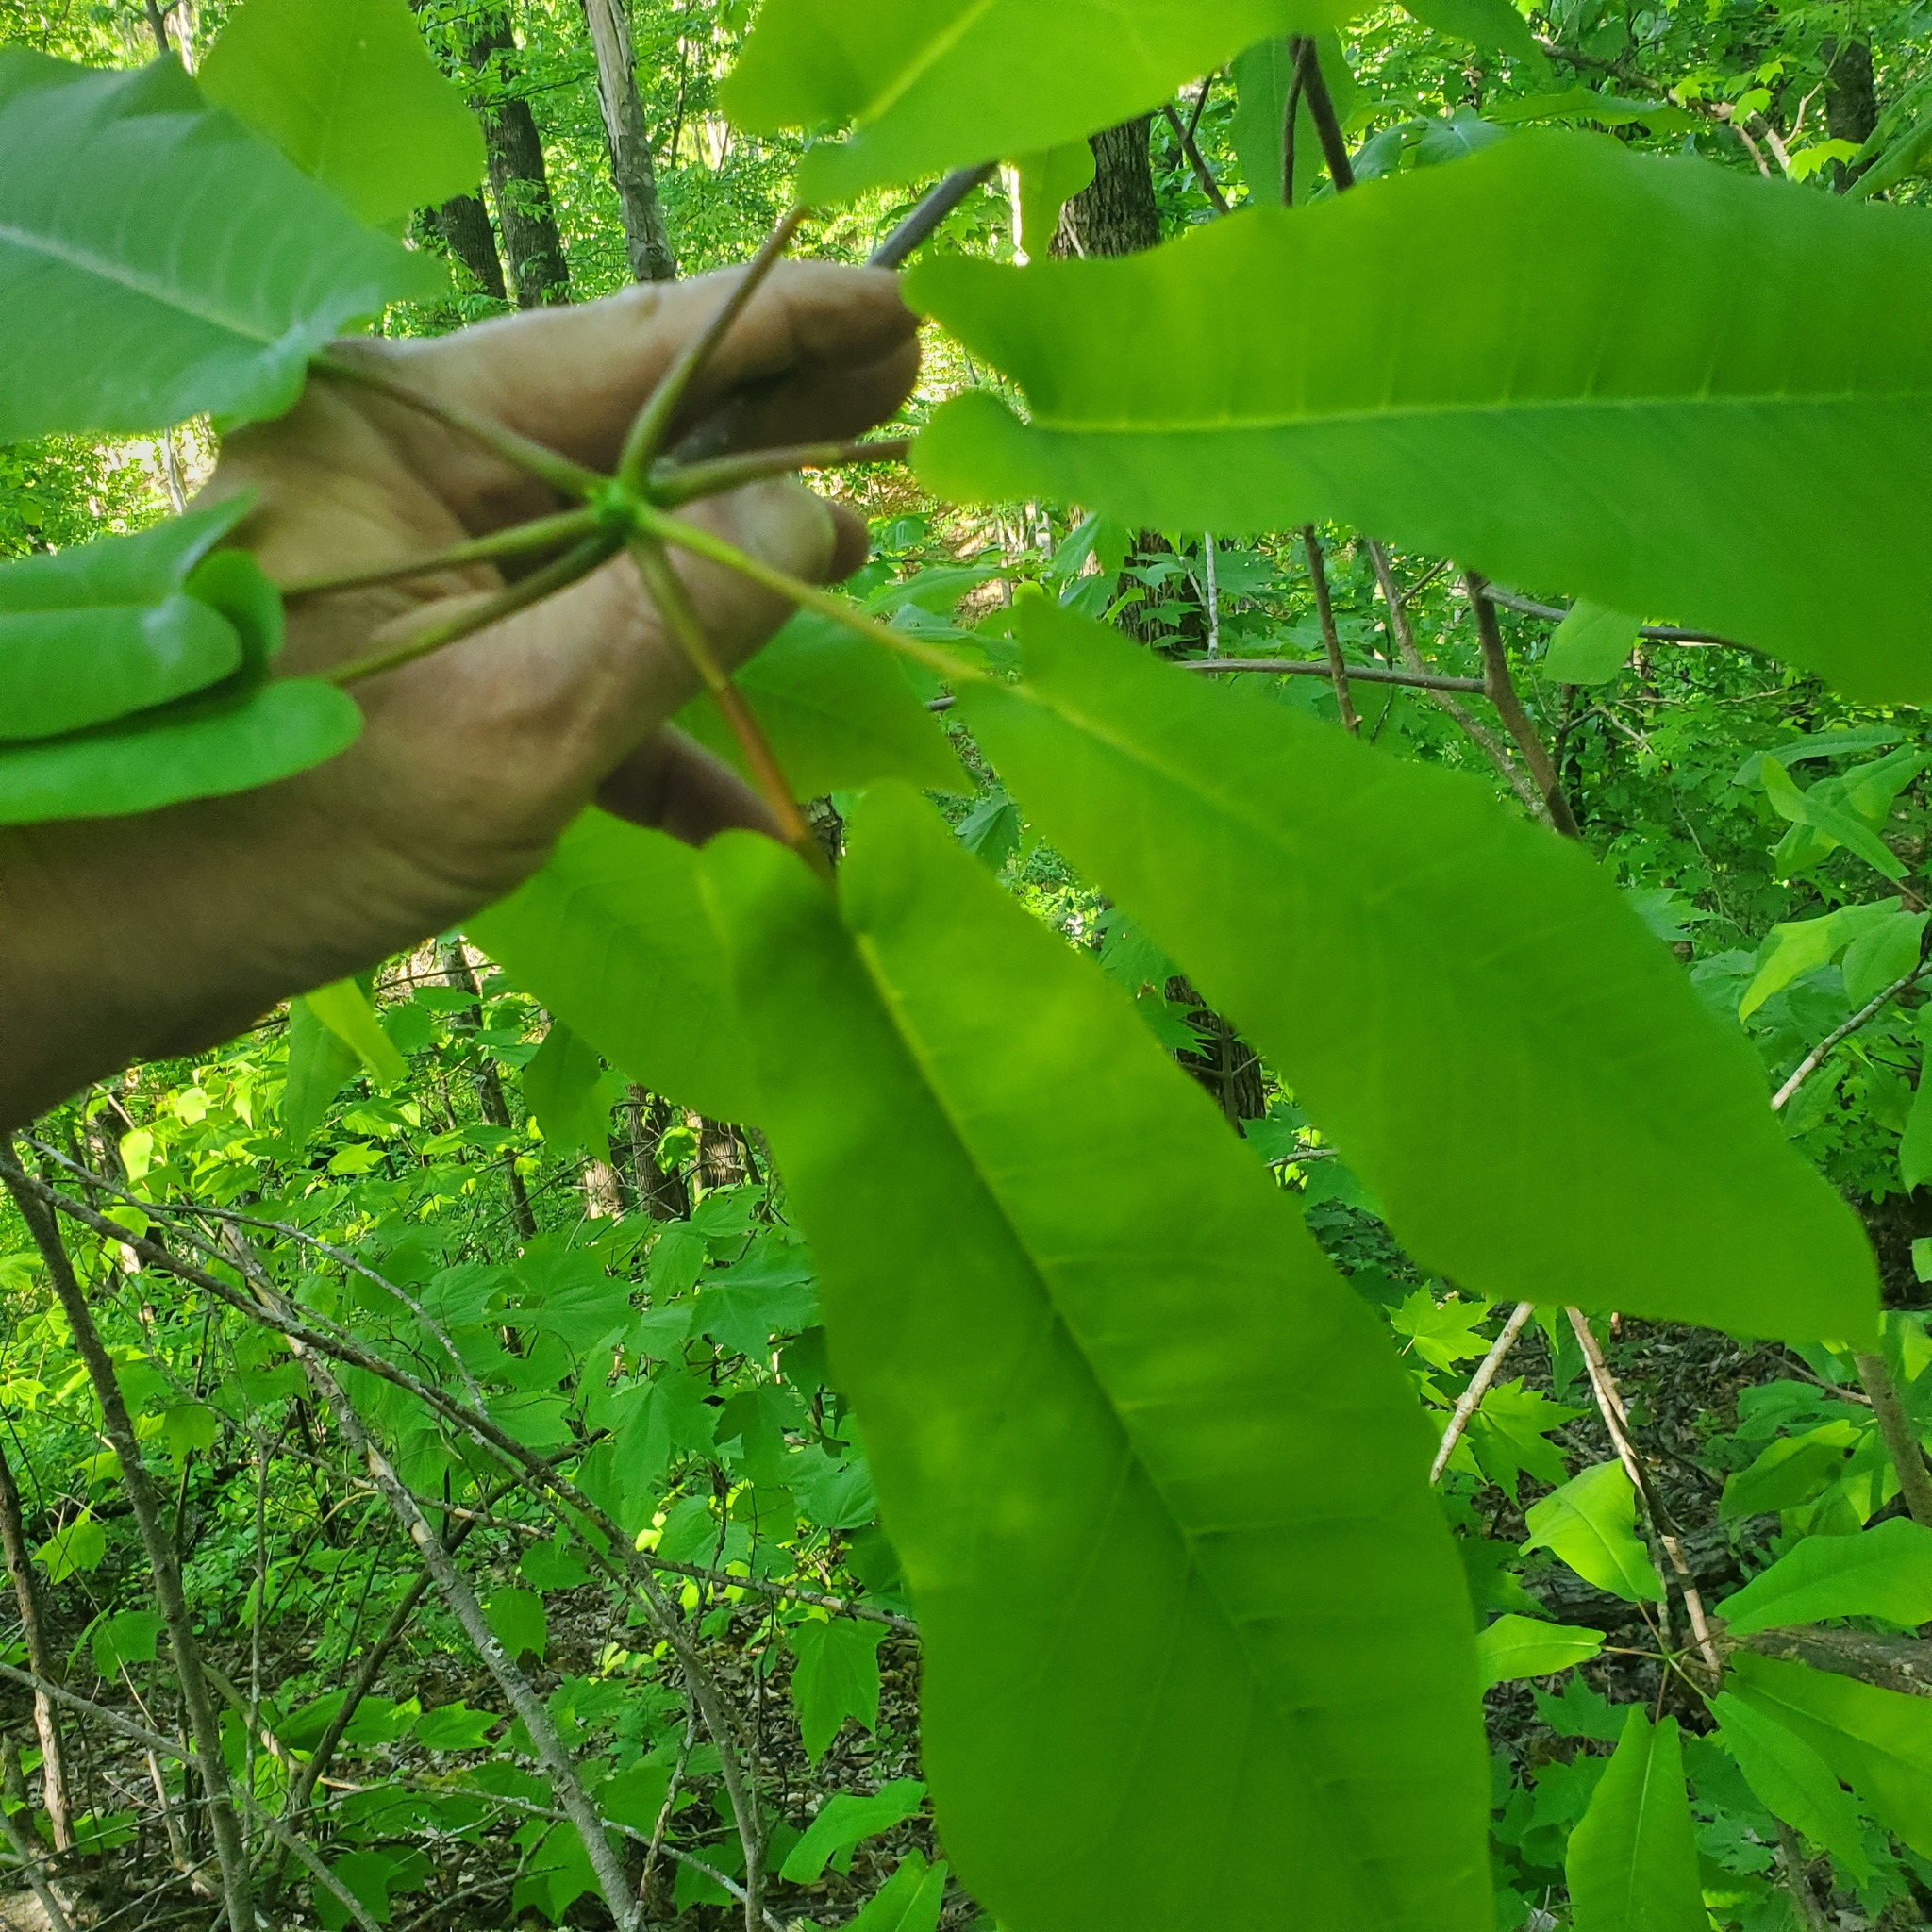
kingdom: Plantae
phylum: Tracheophyta
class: Magnoliopsida
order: Magnoliales
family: Magnoliaceae
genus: Magnolia
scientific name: Magnolia fraseri
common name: Fraser's magnolia
